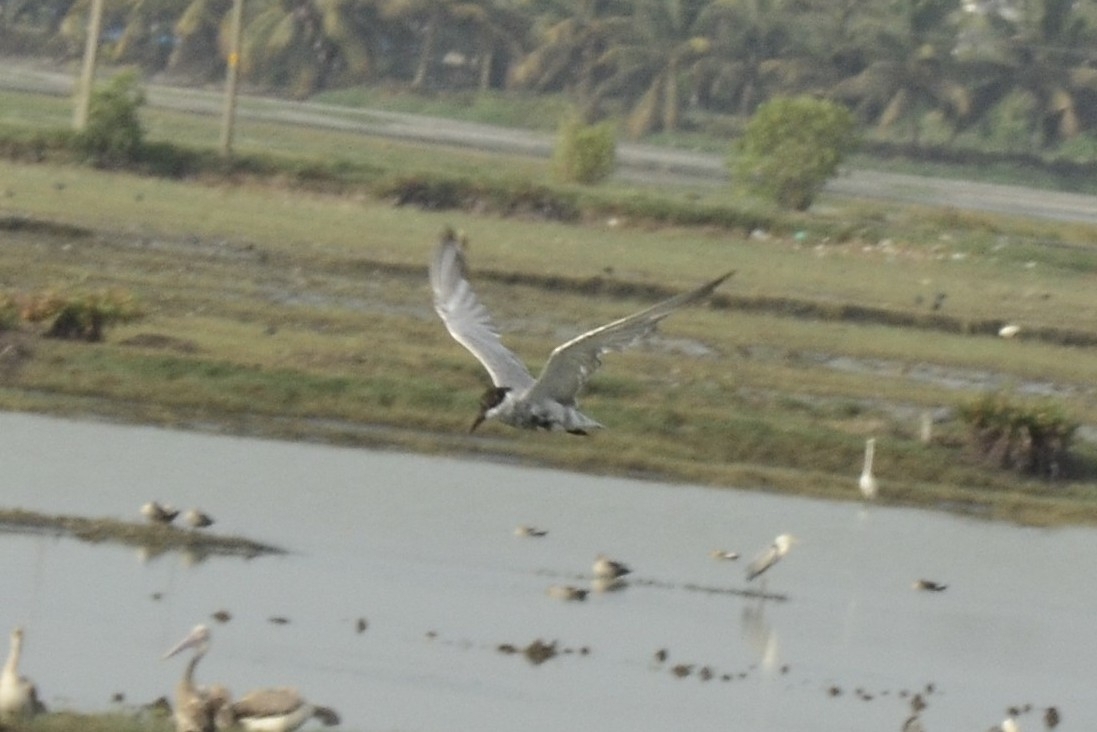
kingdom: Animalia
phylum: Chordata
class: Aves
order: Charadriiformes
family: Laridae
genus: Chlidonias
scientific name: Chlidonias hybrida
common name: Whiskered tern
